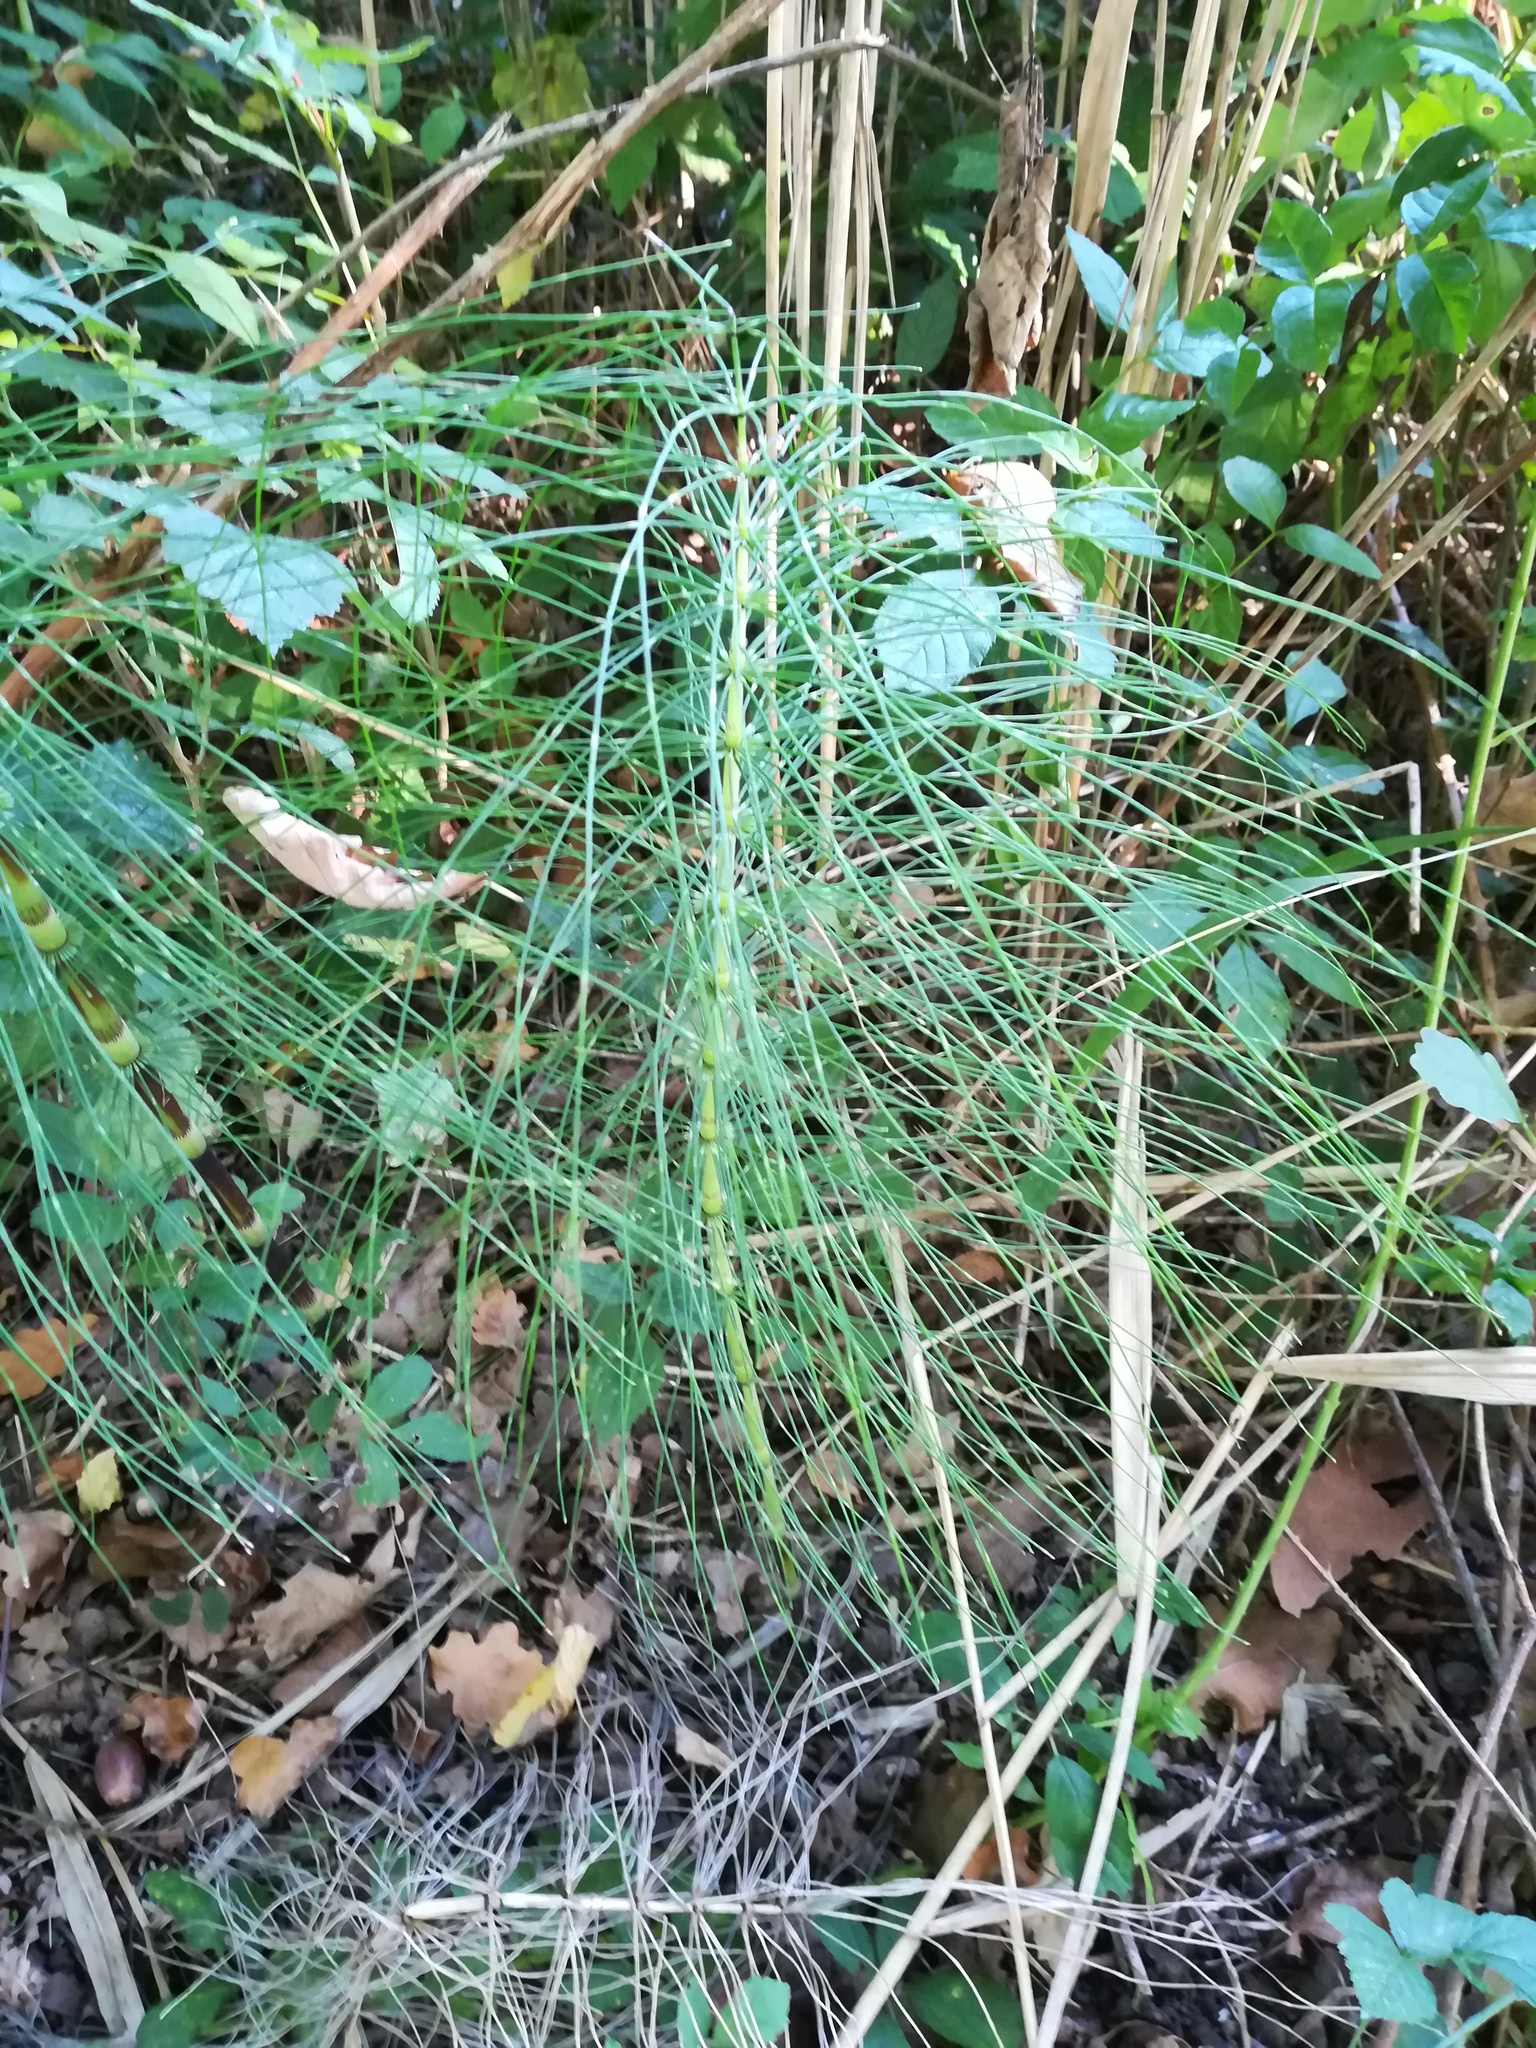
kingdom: Plantae
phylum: Tracheophyta
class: Polypodiopsida
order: Equisetales
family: Equisetaceae
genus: Equisetum
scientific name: Equisetum telmateia
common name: Great horsetail
